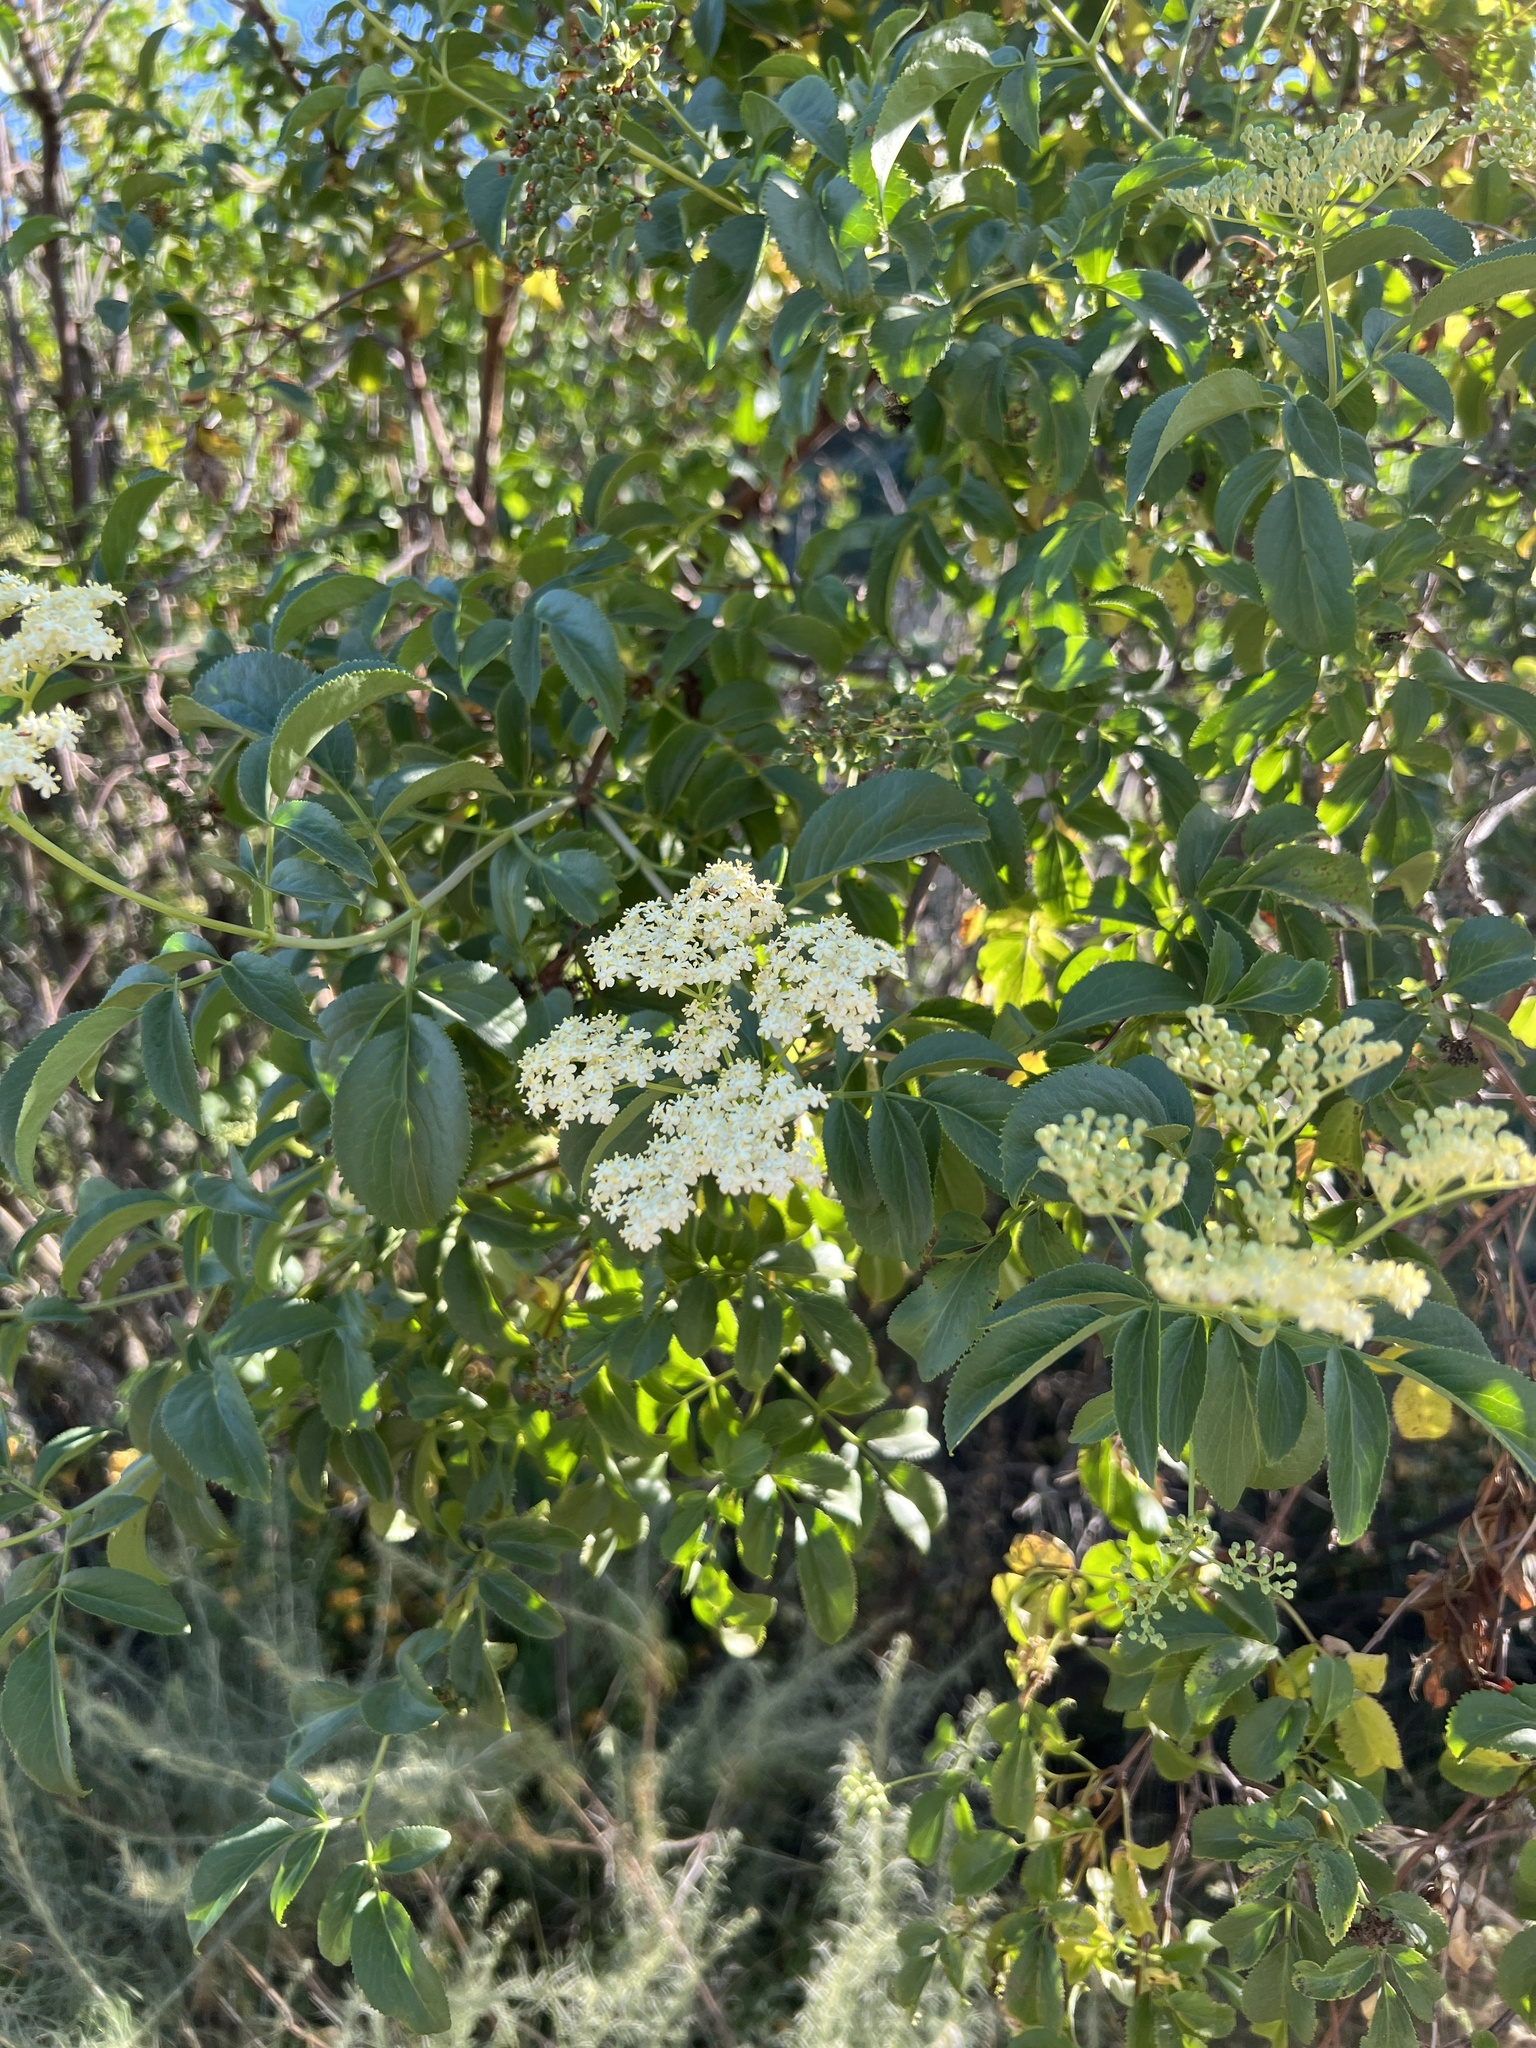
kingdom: Plantae
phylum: Tracheophyta
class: Magnoliopsida
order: Dipsacales
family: Viburnaceae
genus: Sambucus
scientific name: Sambucus cerulea
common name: Blue elder
